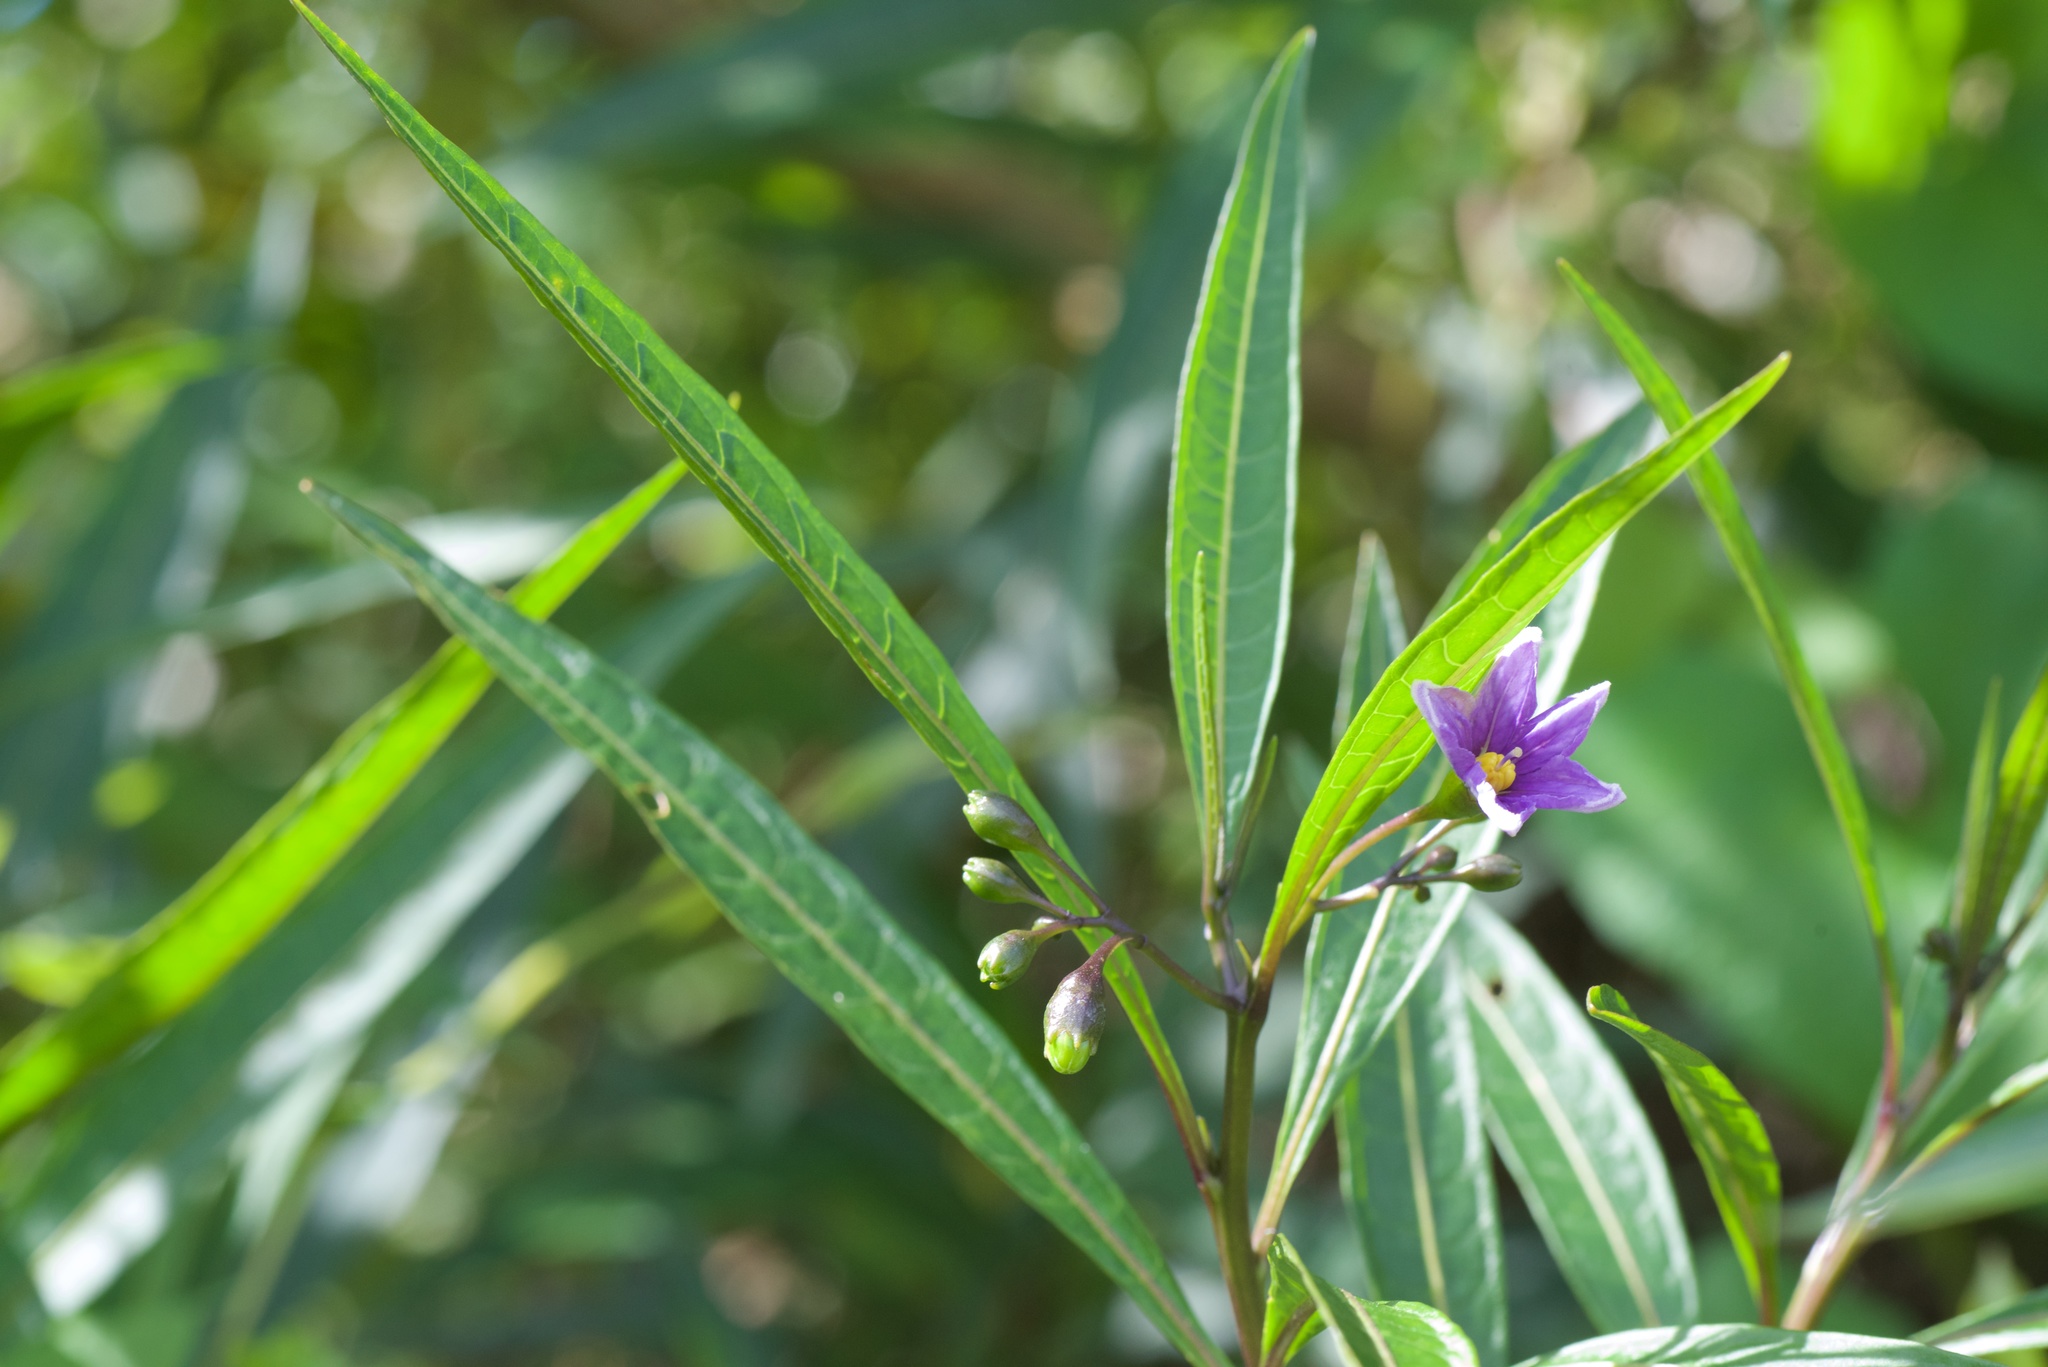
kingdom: Plantae
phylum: Tracheophyta
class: Magnoliopsida
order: Solanales
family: Solanaceae
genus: Solanum
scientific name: Solanum aviculare
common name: New zealand nightshade
